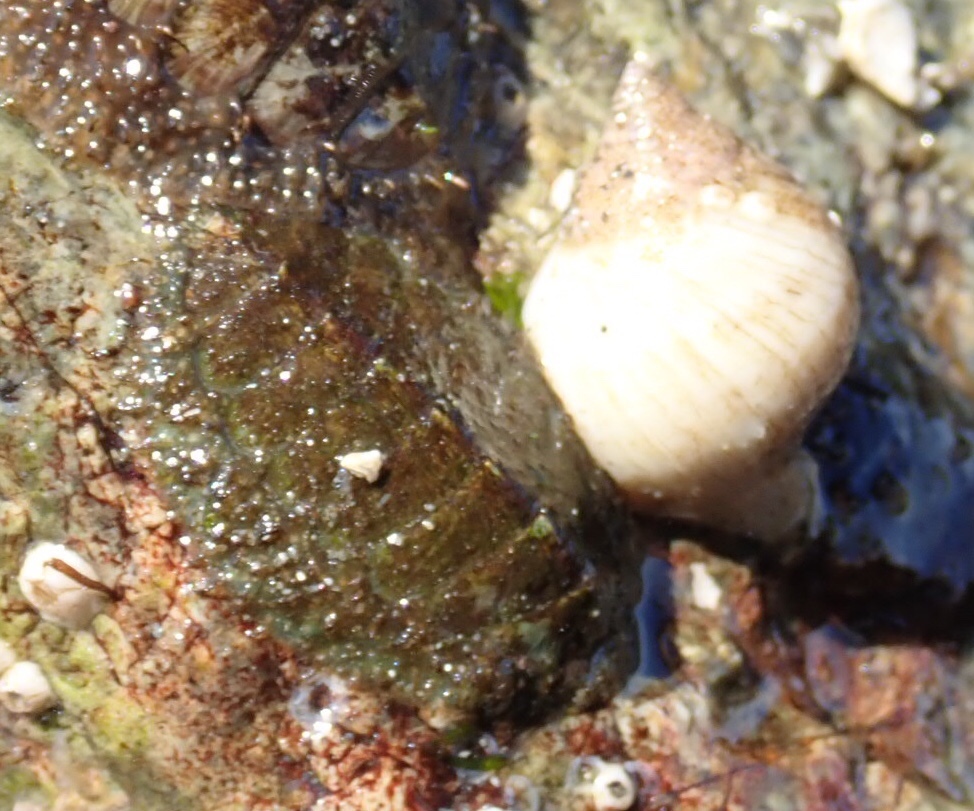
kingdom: Animalia
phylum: Mollusca
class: Gastropoda
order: Neogastropoda
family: Muricidae
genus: Nucella
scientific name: Nucella lamellosa
